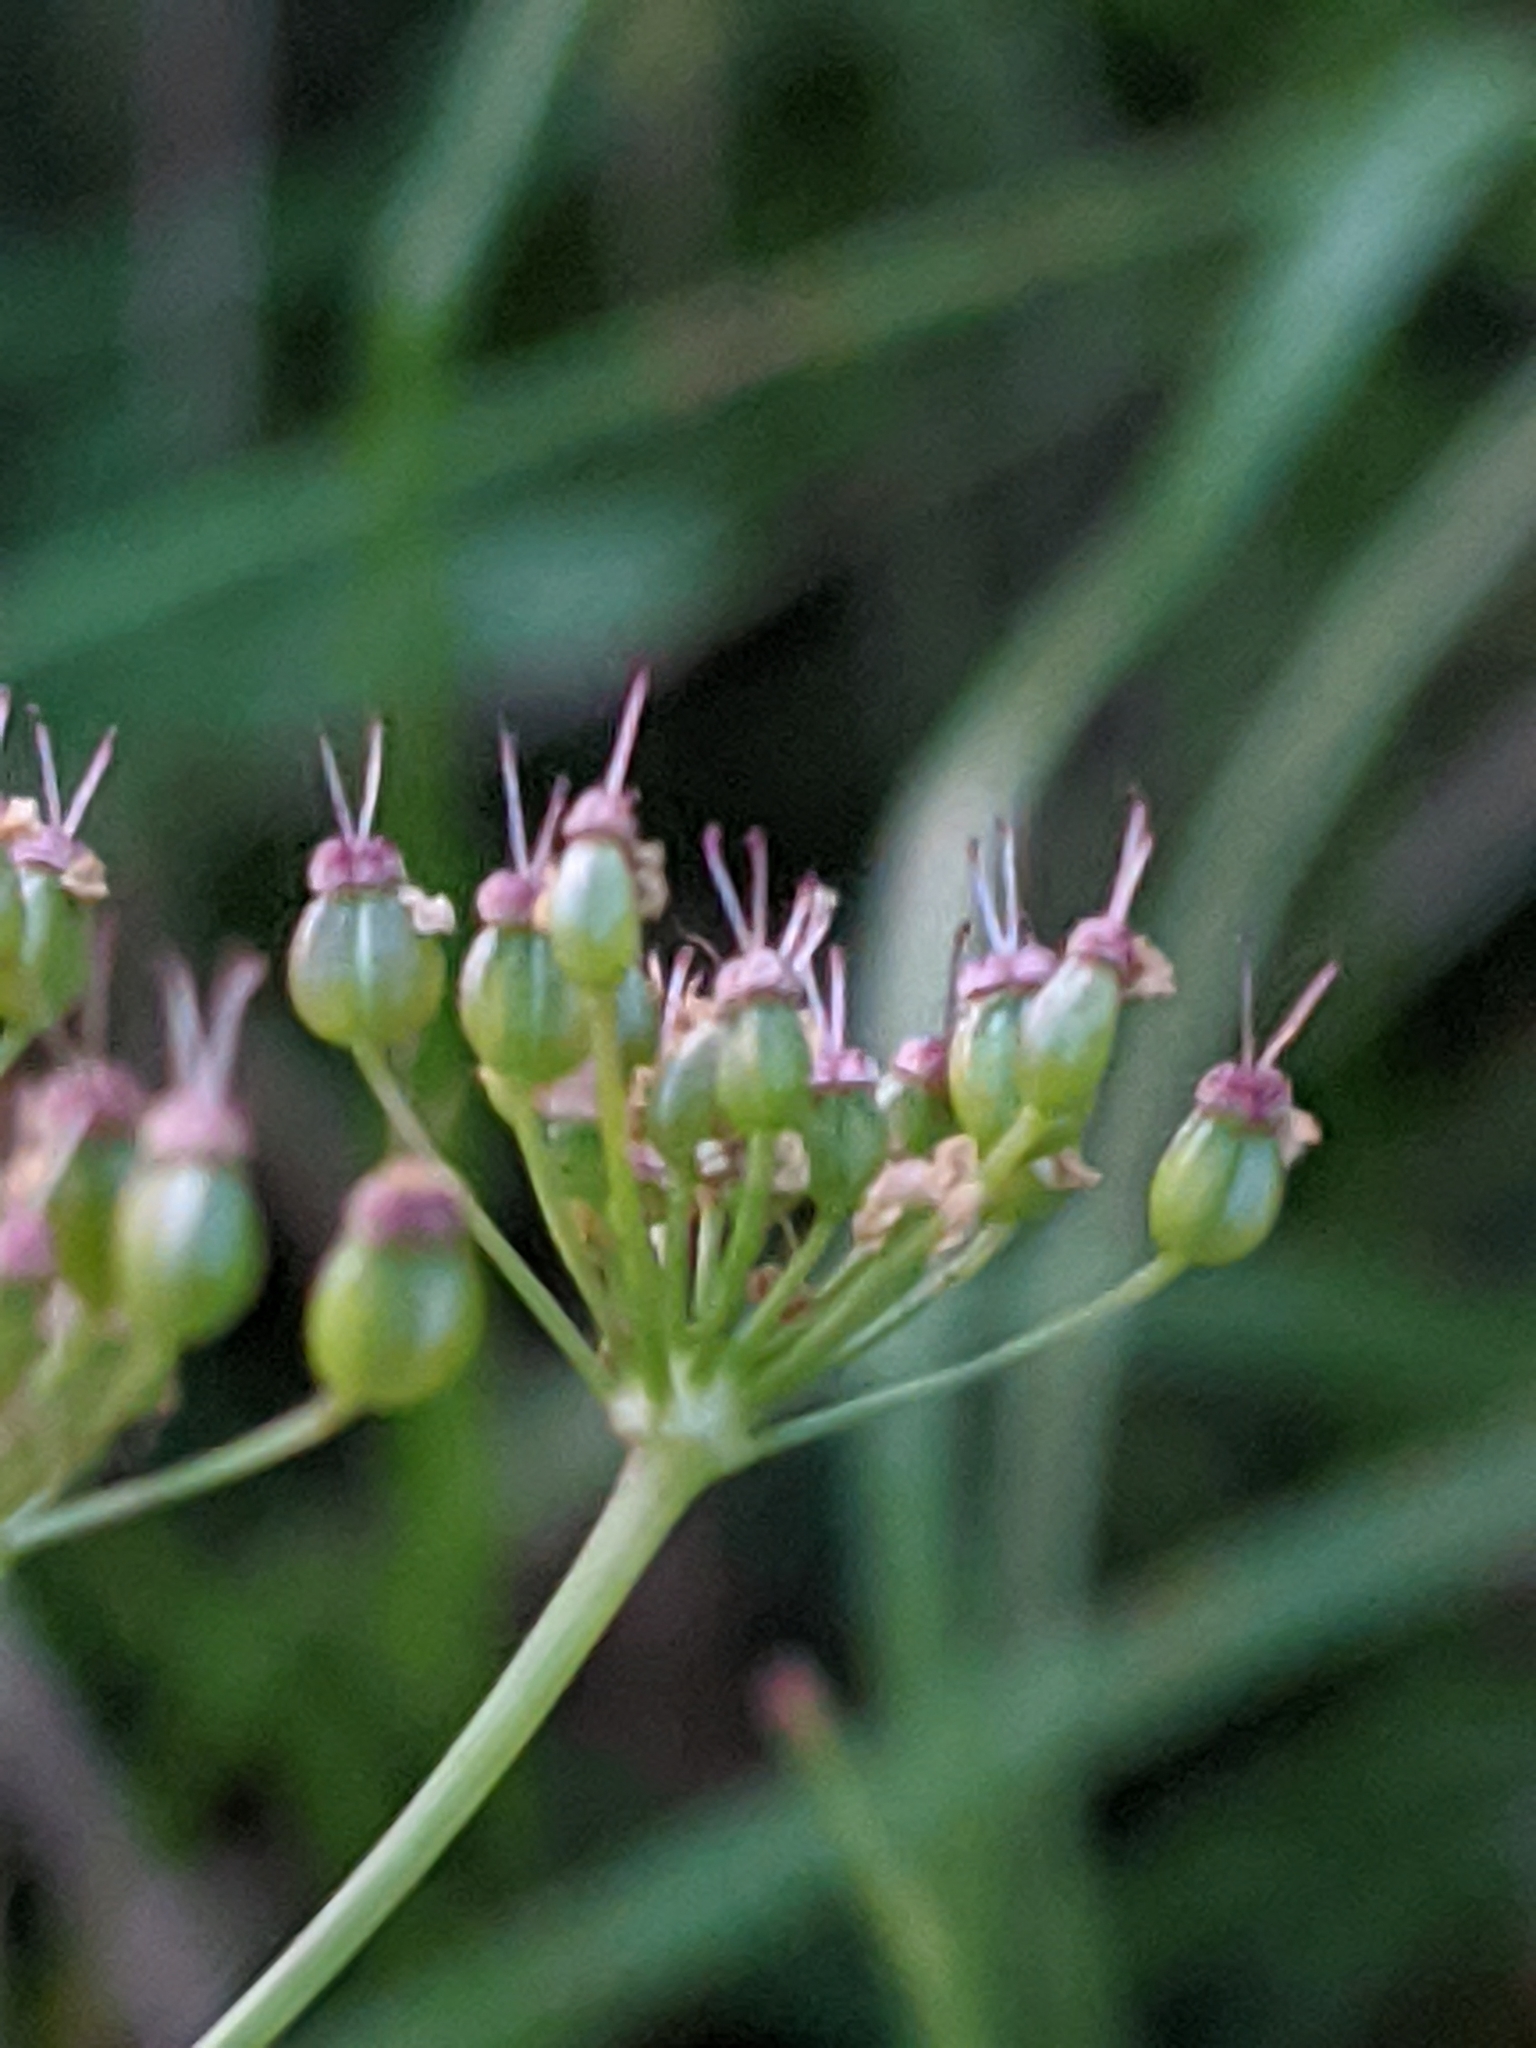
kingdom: Plantae
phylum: Tracheophyta
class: Magnoliopsida
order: Apiales
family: Apiaceae
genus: Pimpinella
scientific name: Pimpinella saxifraga
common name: Burnet-saxifrage
